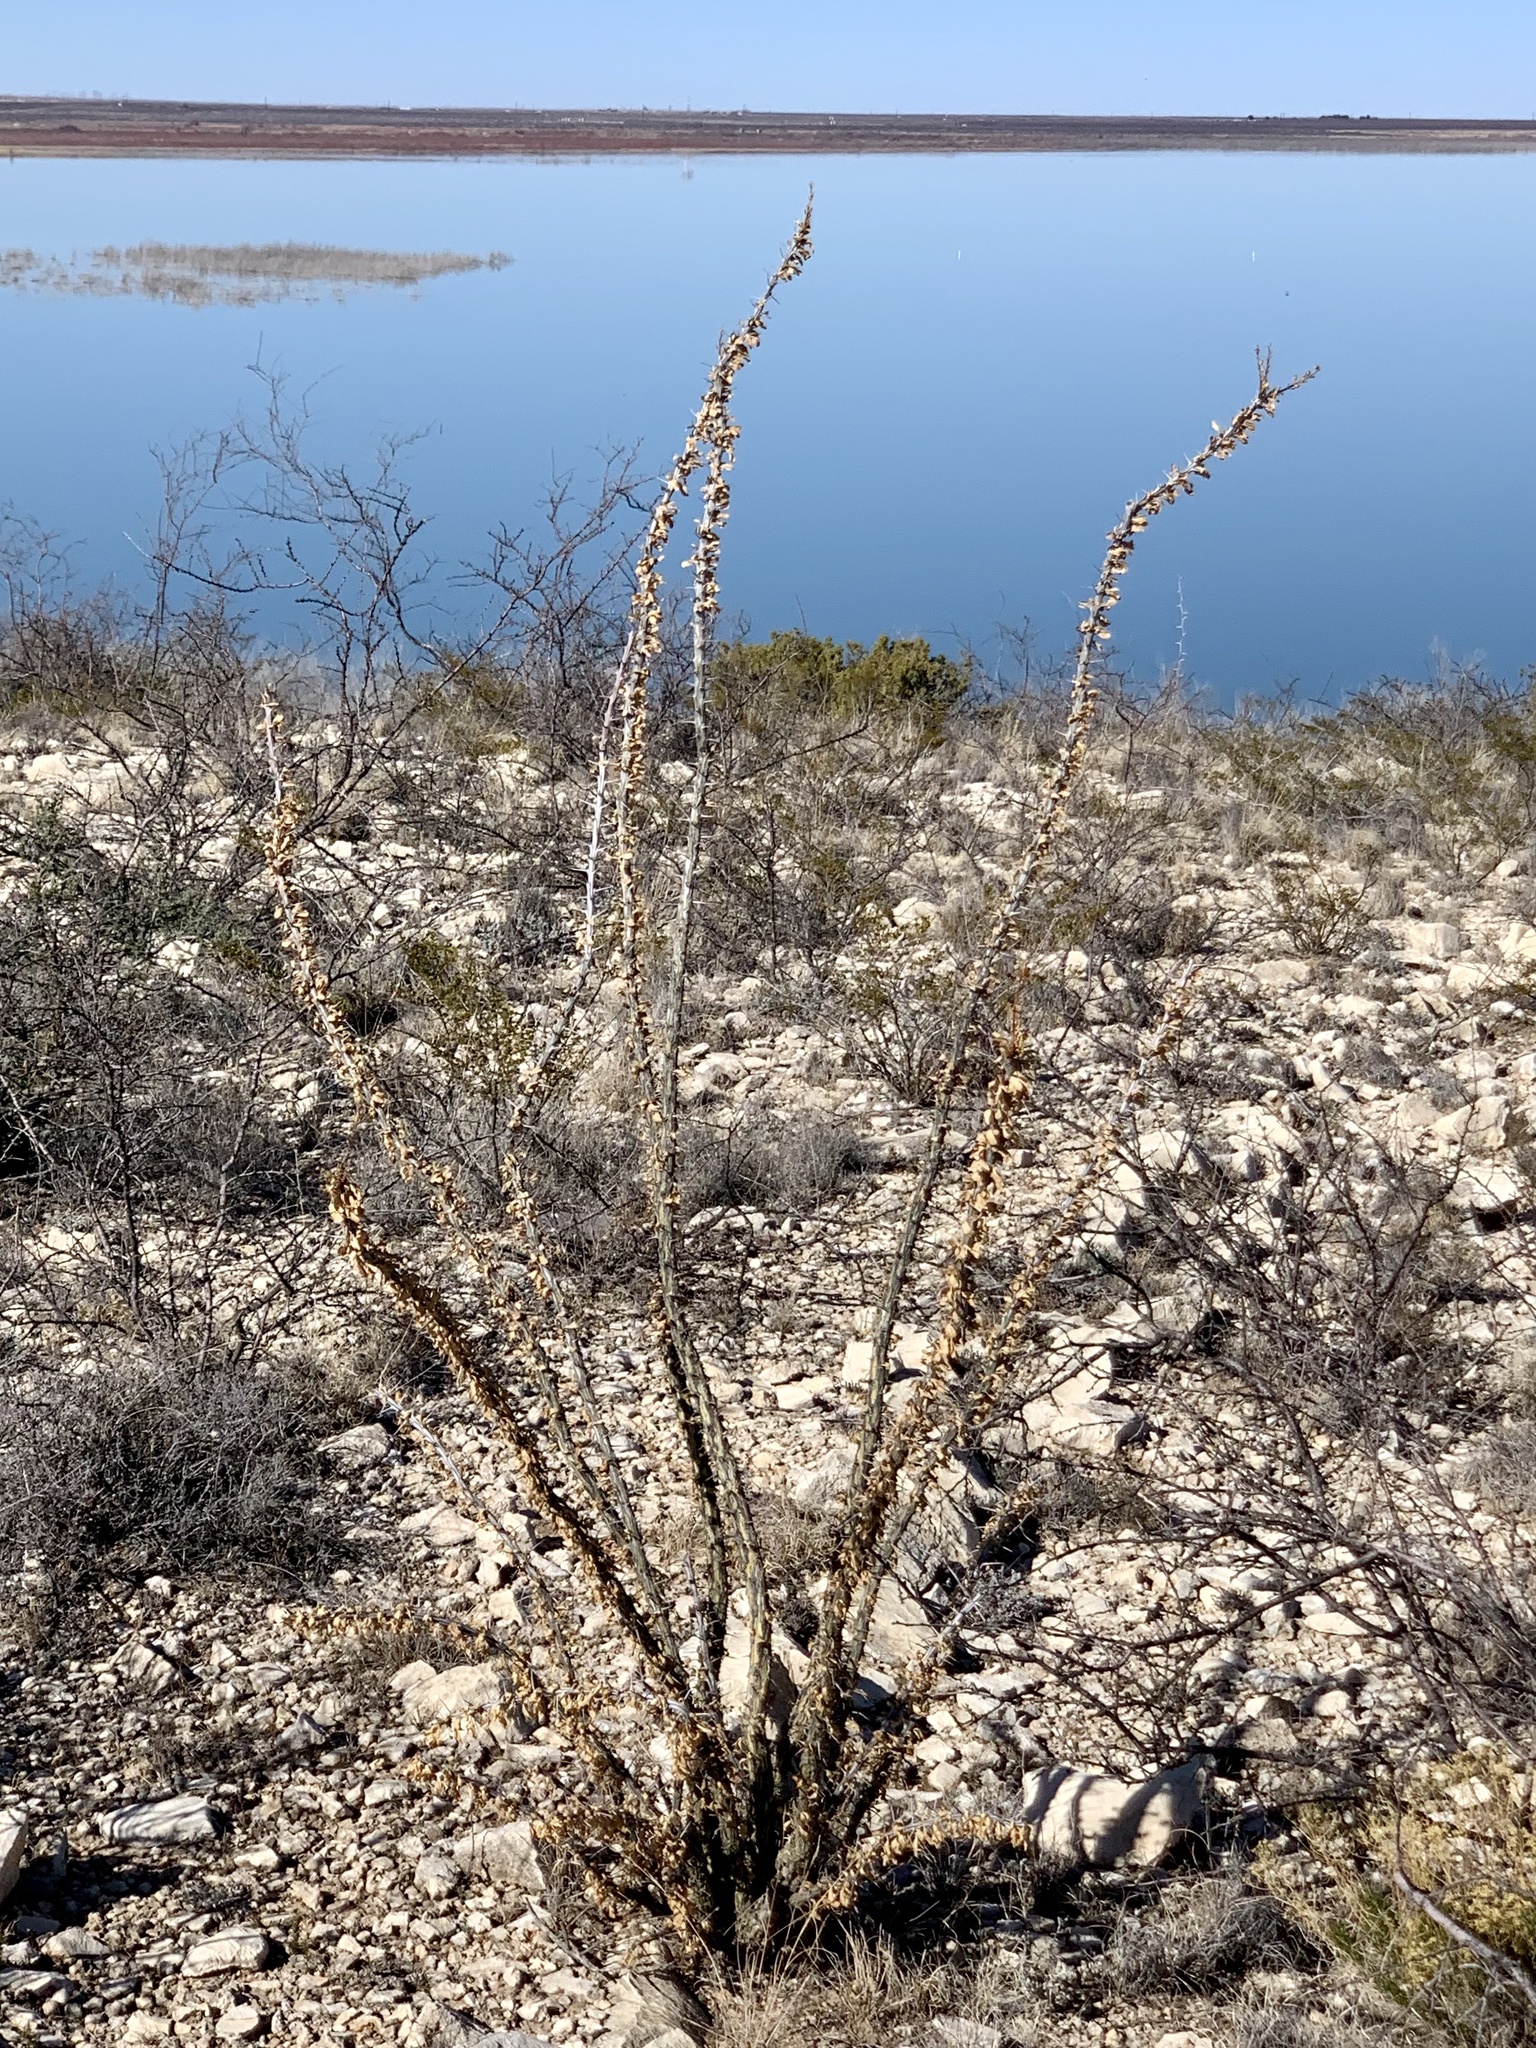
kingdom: Plantae
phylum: Tracheophyta
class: Magnoliopsida
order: Ericales
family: Fouquieriaceae
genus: Fouquieria
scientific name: Fouquieria splendens
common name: Vine-cactus
